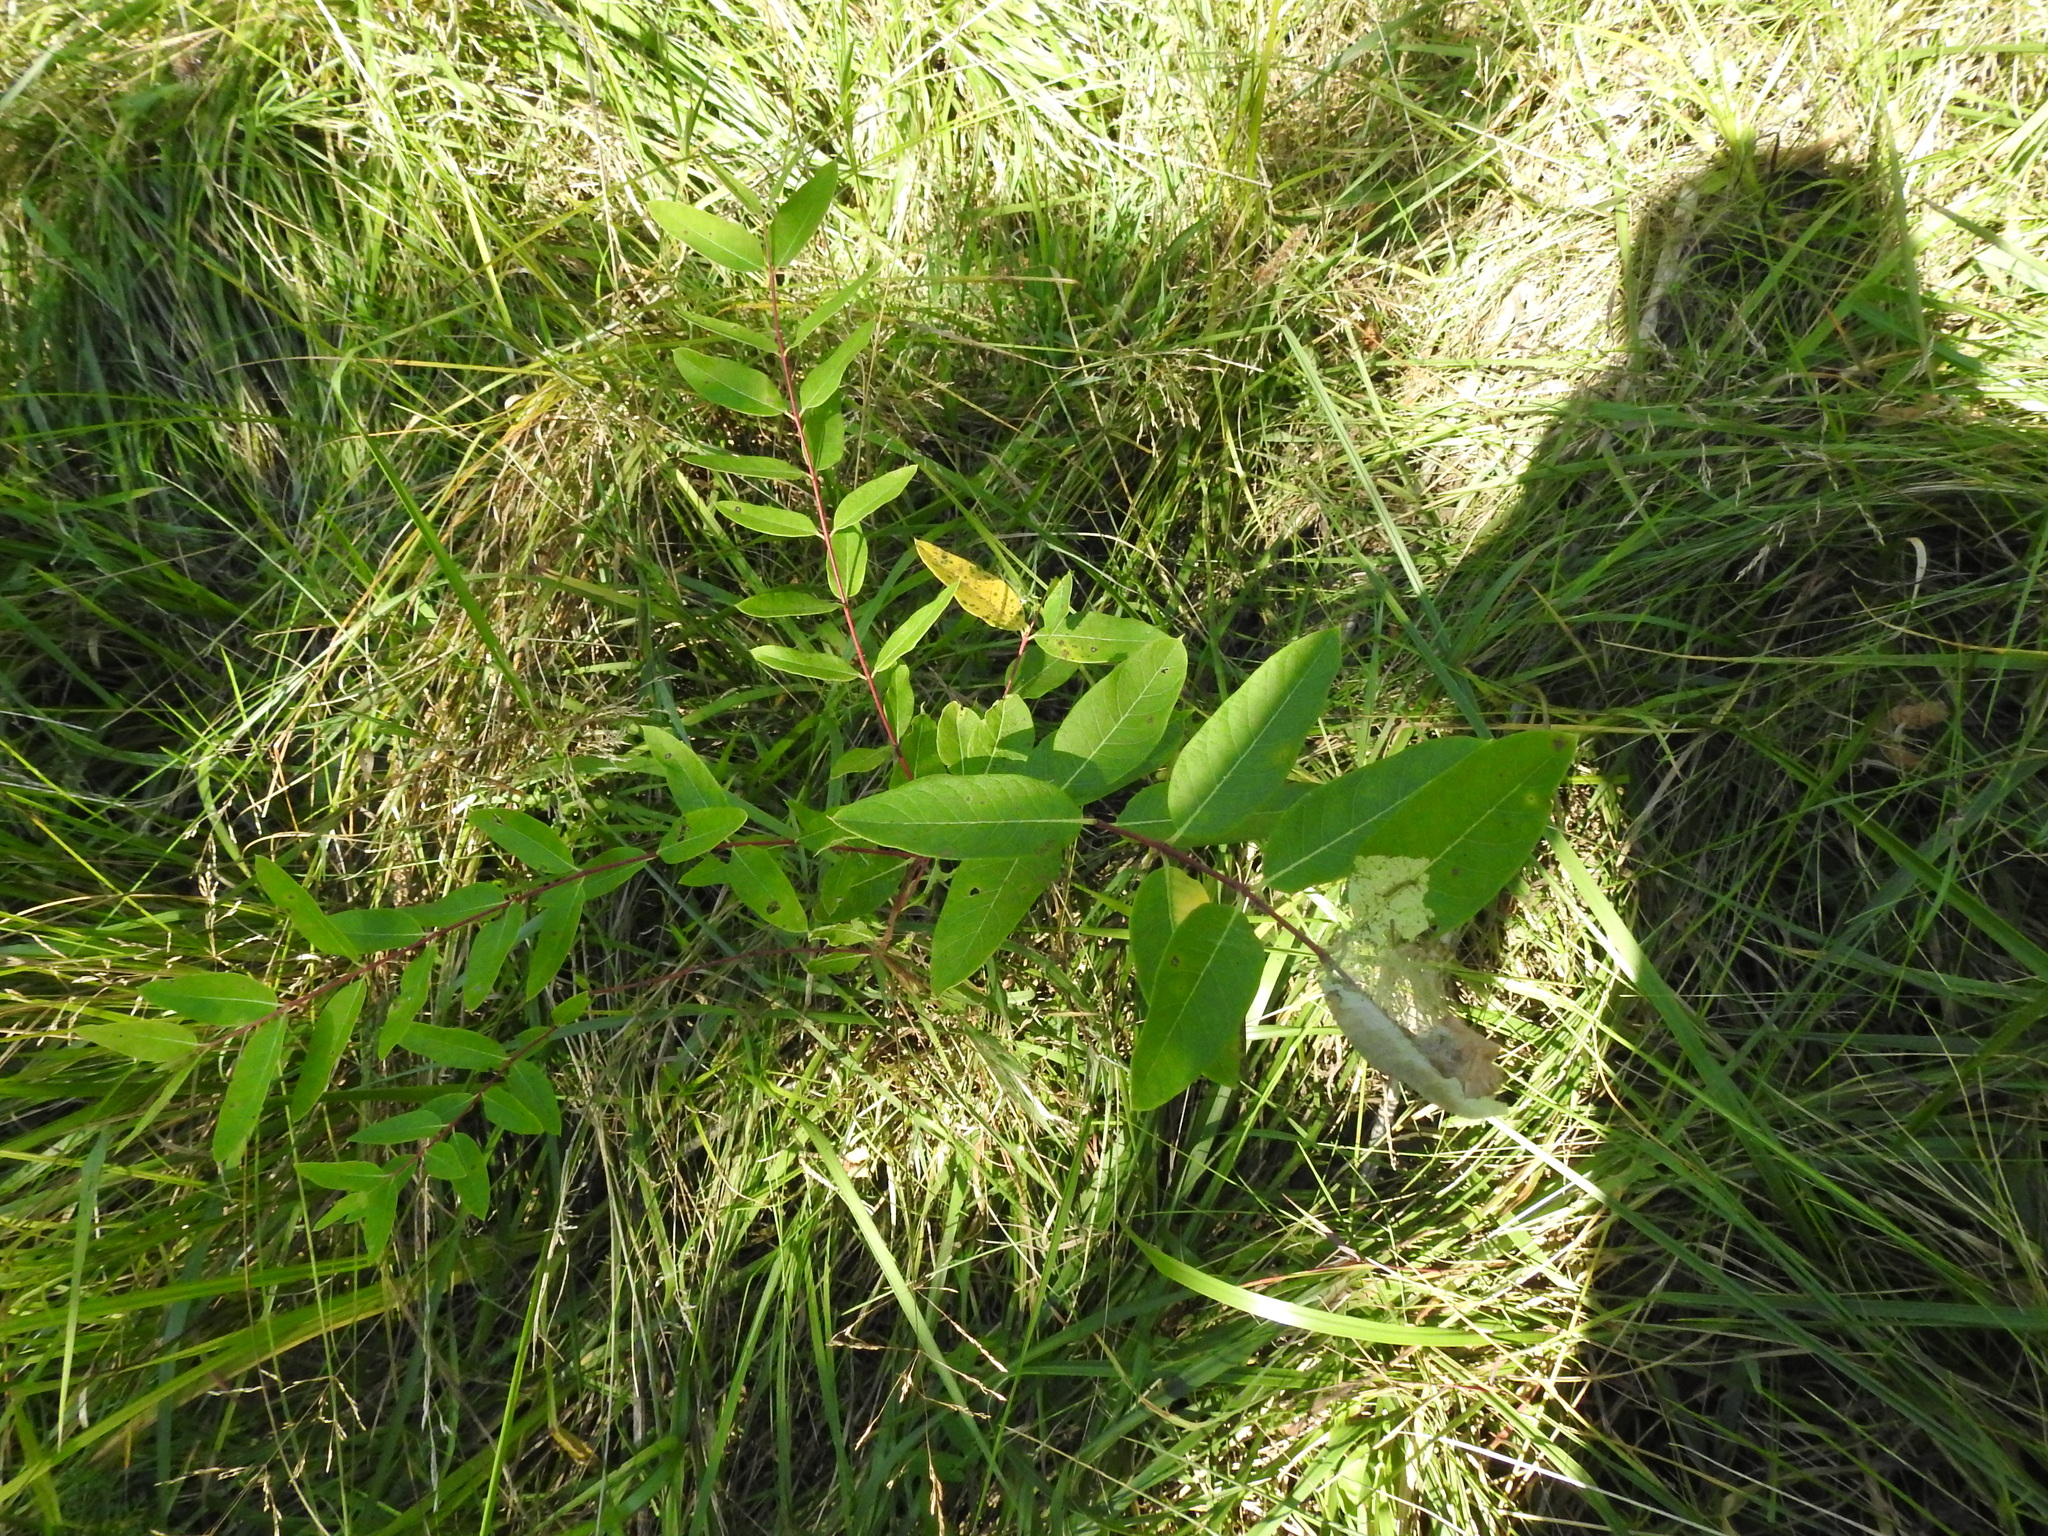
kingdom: Plantae
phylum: Tracheophyta
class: Magnoliopsida
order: Gentianales
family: Apocynaceae
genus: Apocynum
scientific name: Apocynum cannabinum
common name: Hemp dogbane
